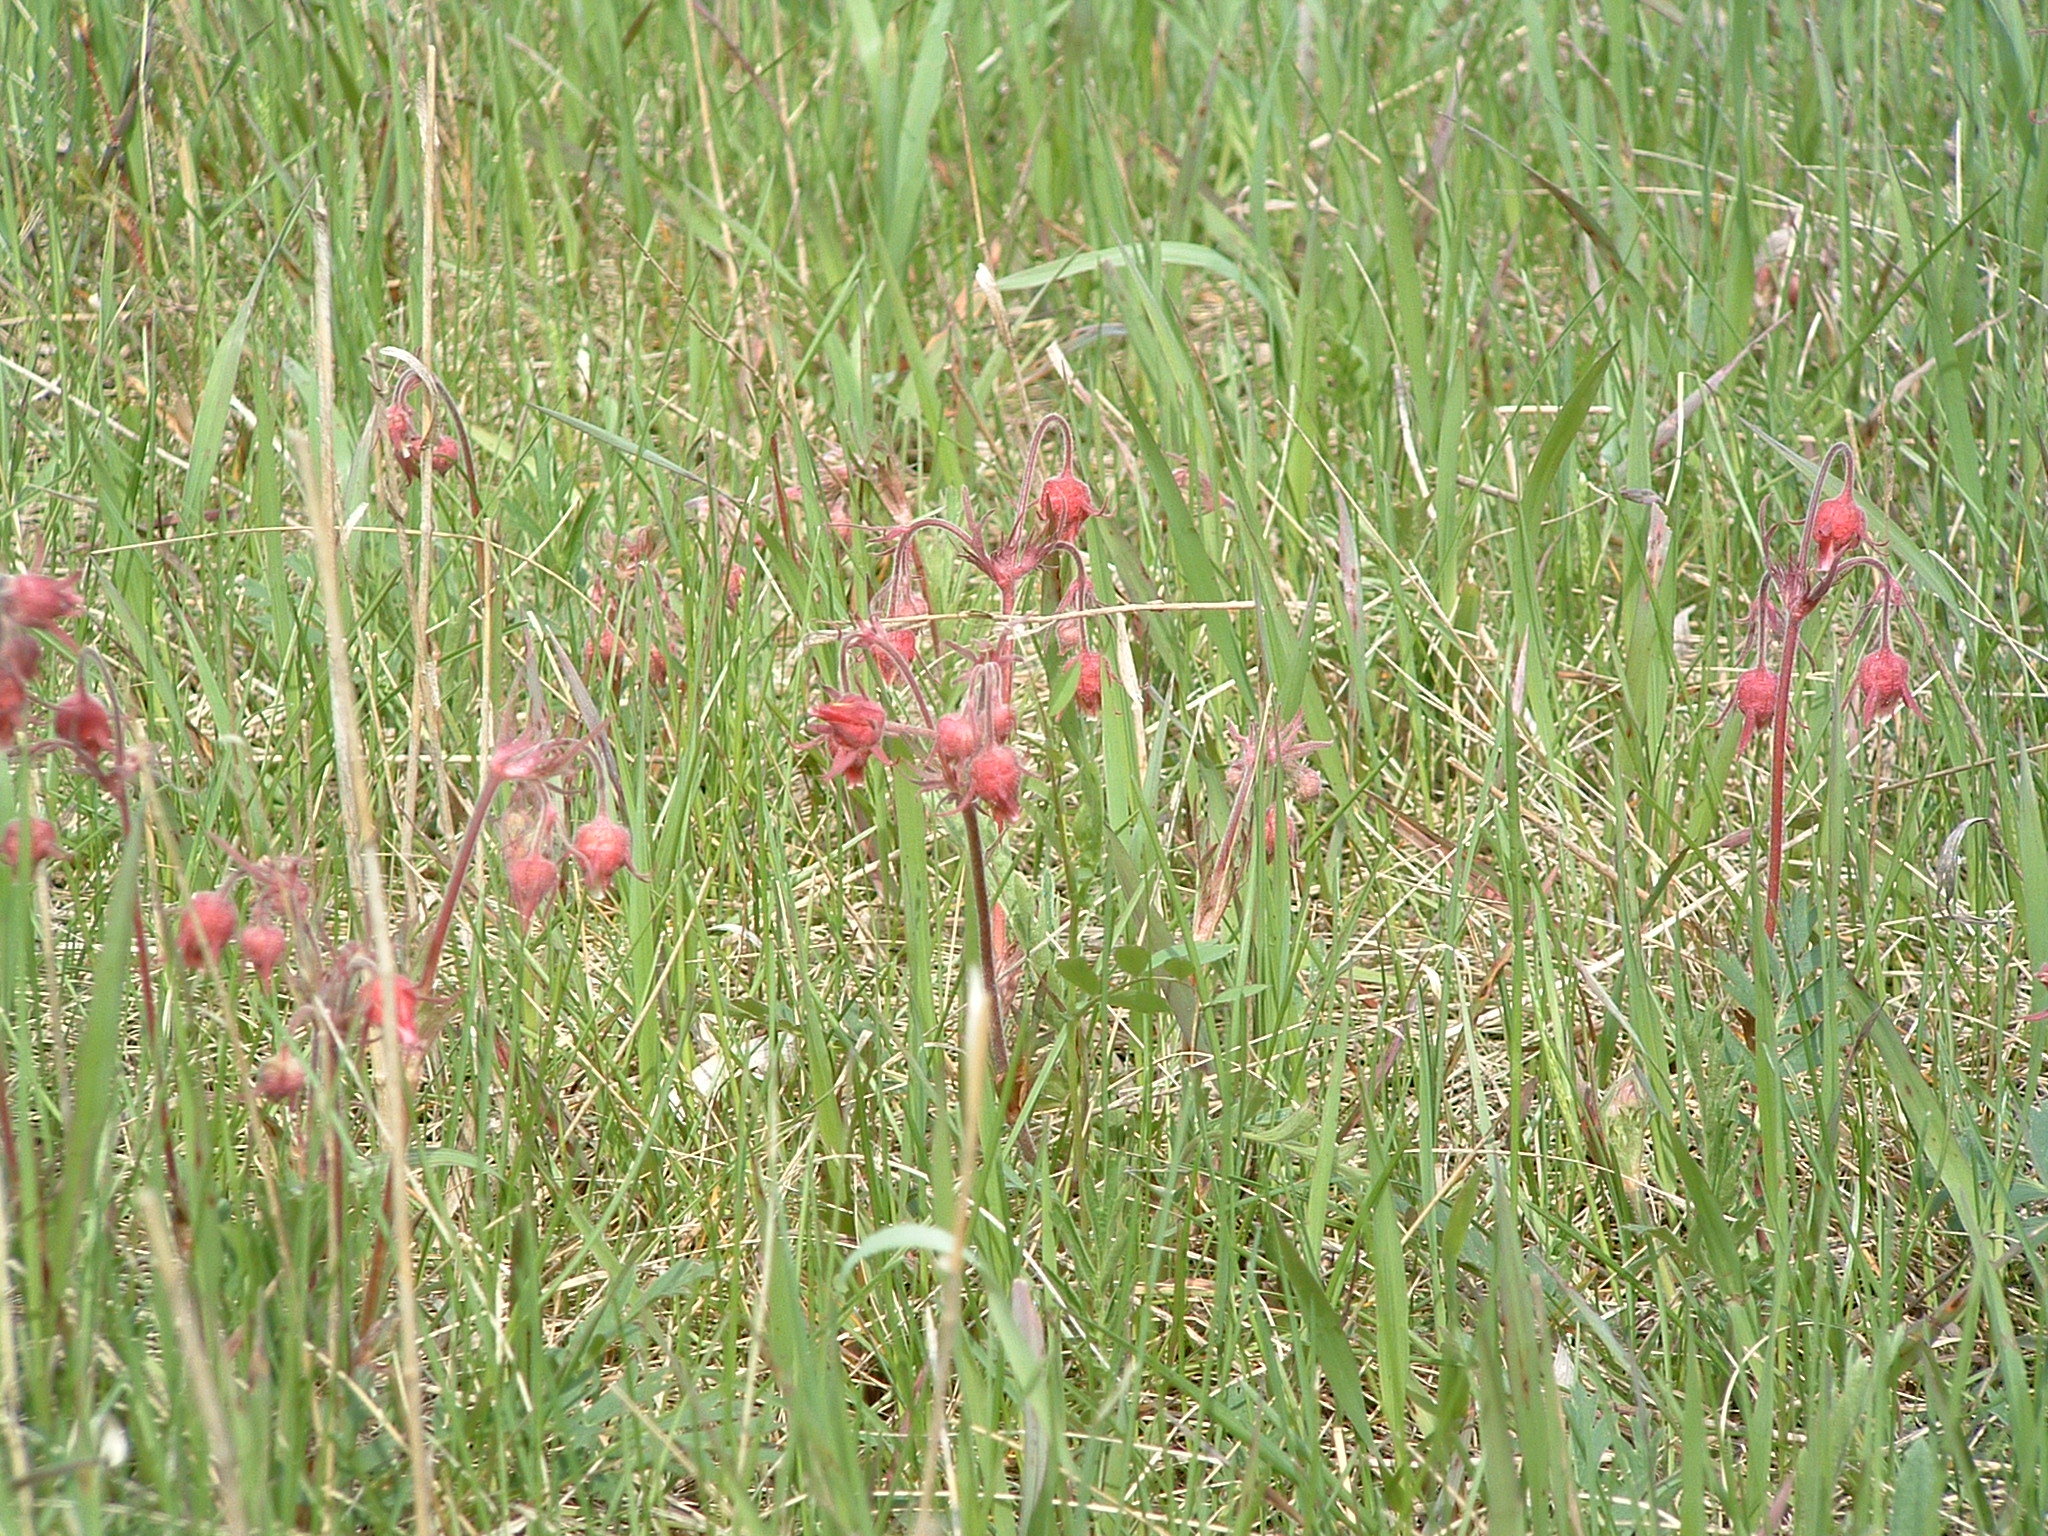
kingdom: Plantae
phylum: Tracheophyta
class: Magnoliopsida
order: Rosales
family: Rosaceae
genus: Geum
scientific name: Geum triflorum
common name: Old man's whiskers
